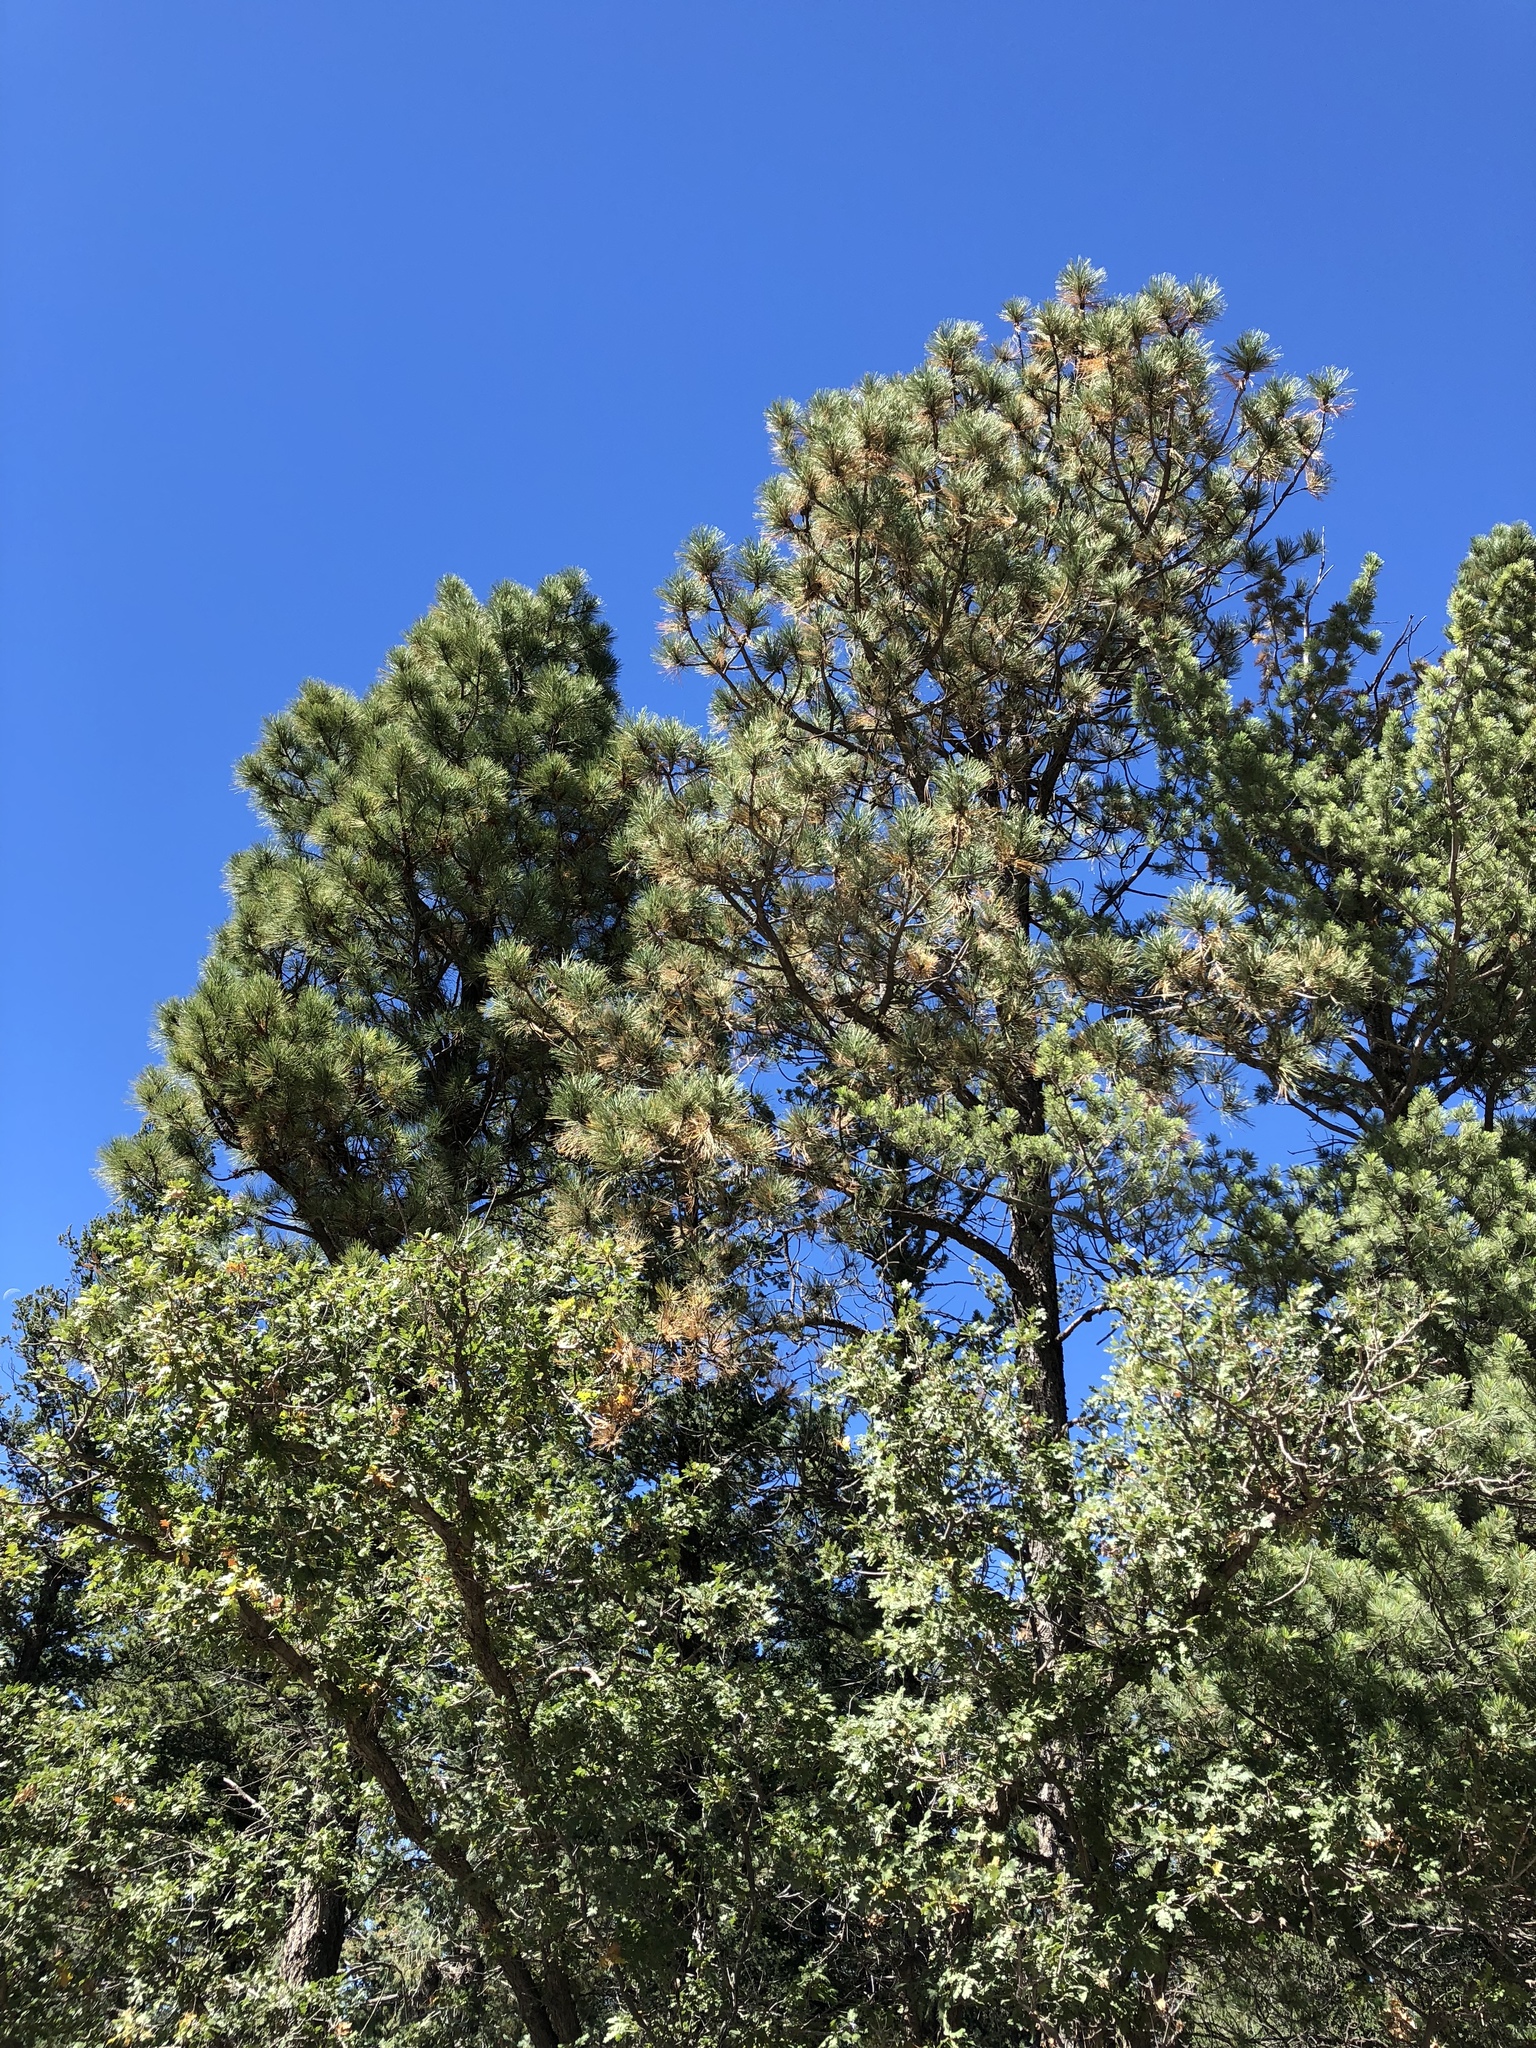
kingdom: Plantae
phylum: Tracheophyta
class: Pinopsida
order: Pinales
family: Pinaceae
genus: Pinus
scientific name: Pinus ponderosa
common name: Western yellow-pine
